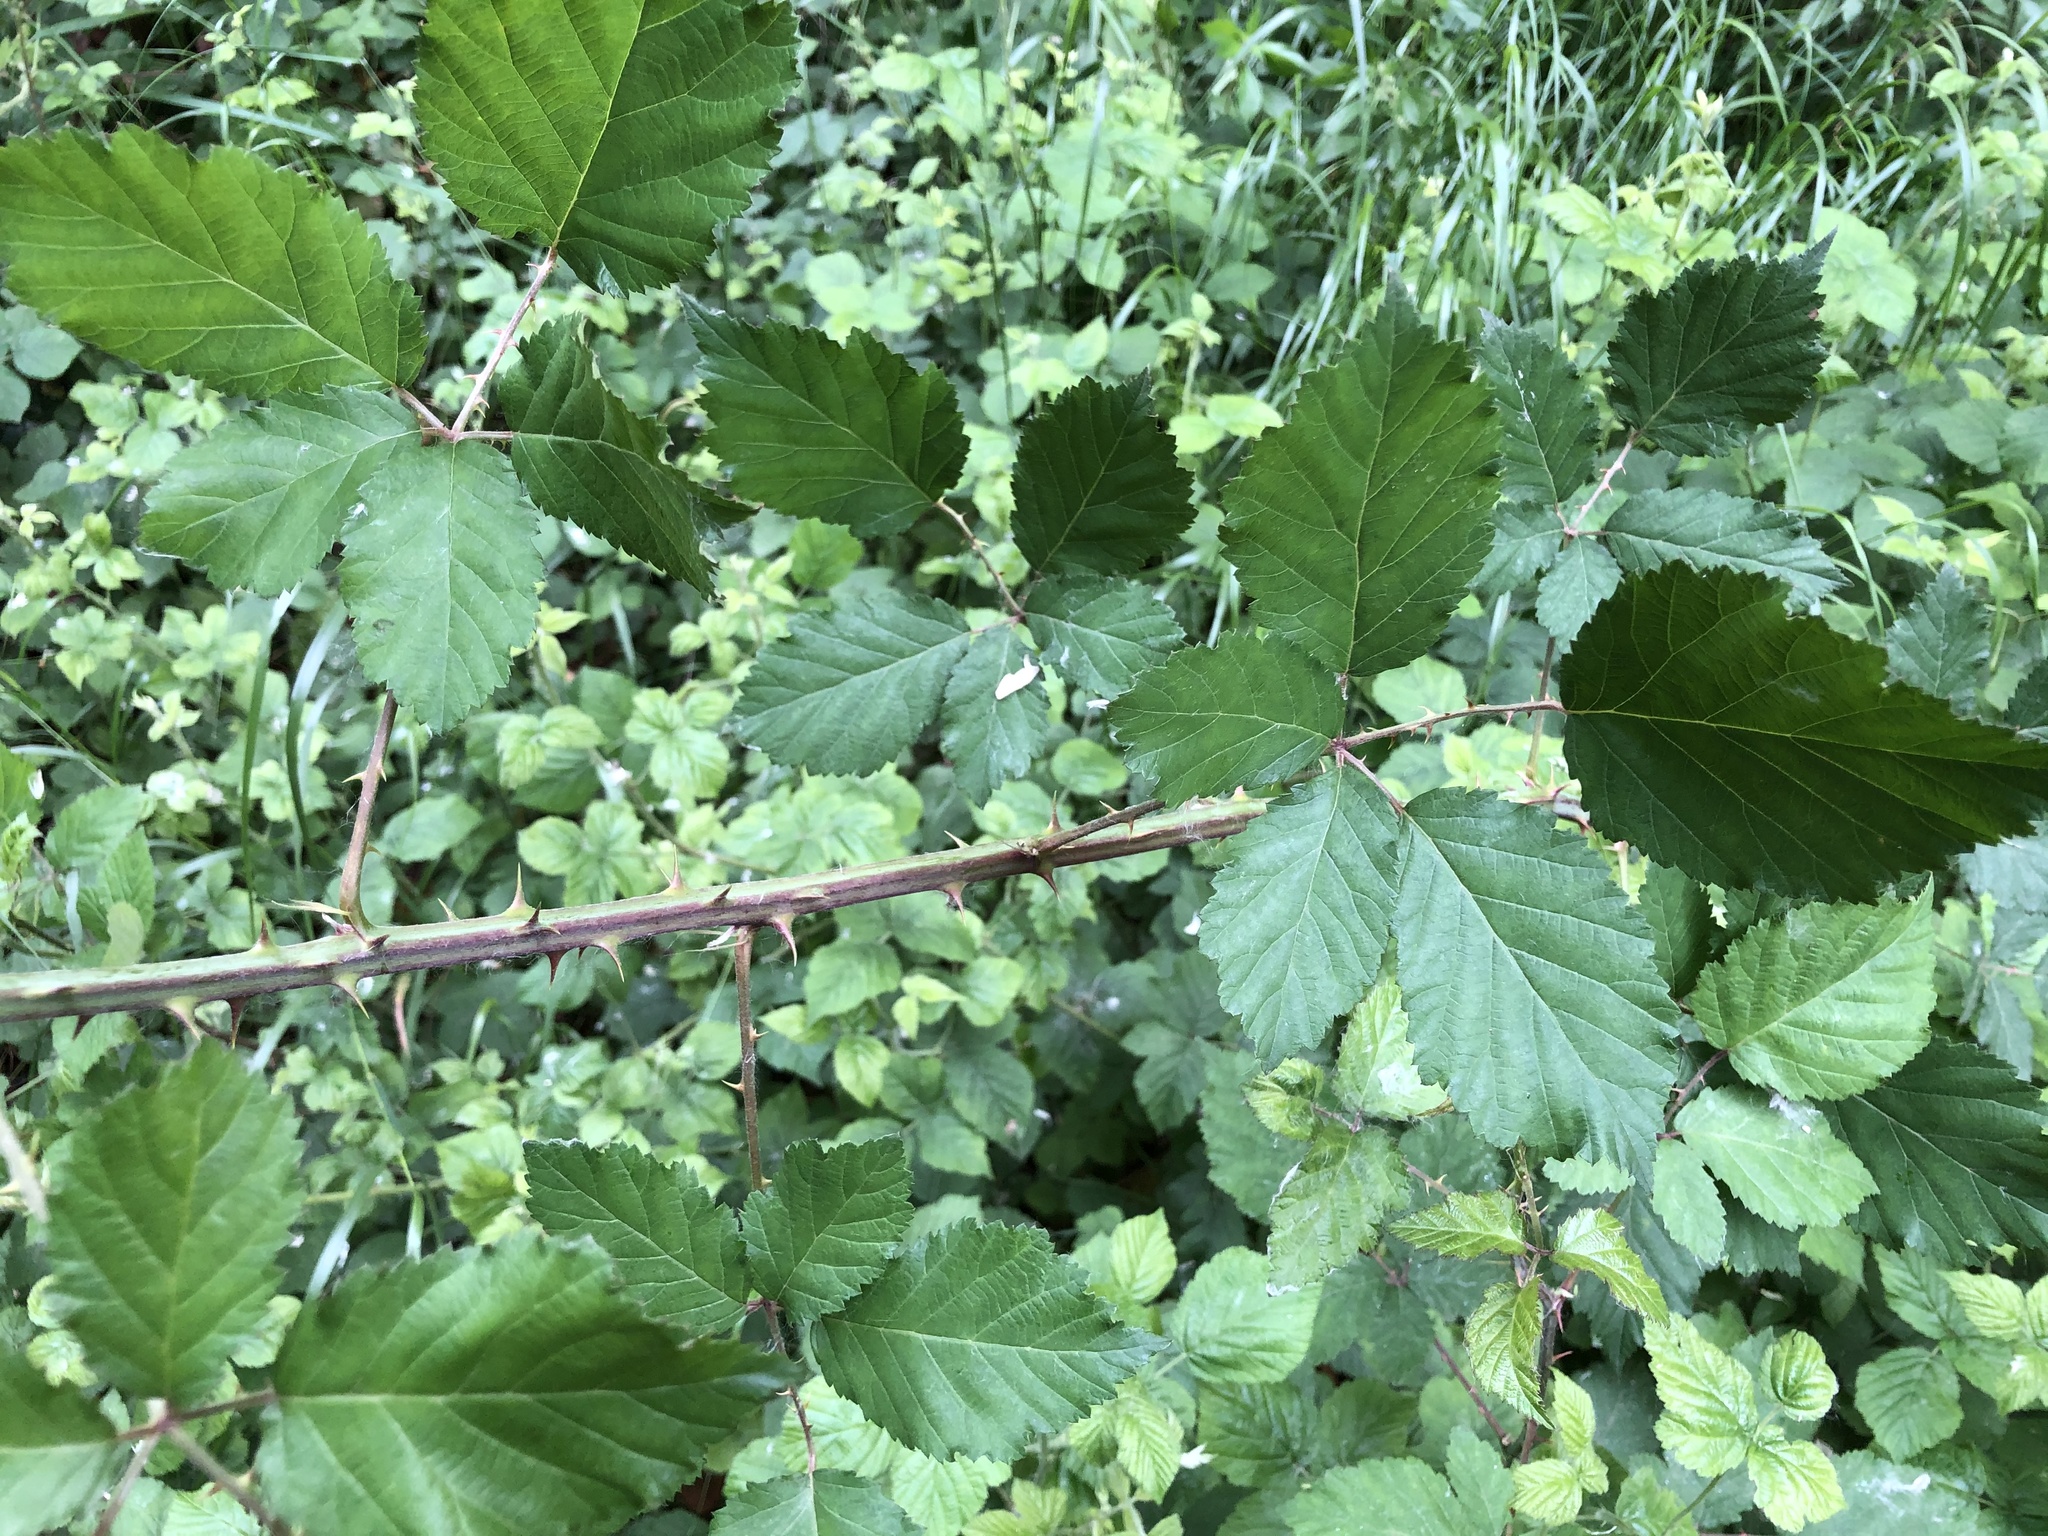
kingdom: Plantae
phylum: Tracheophyta
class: Magnoliopsida
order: Rosales
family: Rosaceae
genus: Rubus
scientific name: Rubus ulmifolius
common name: Elmleaf blackberry
